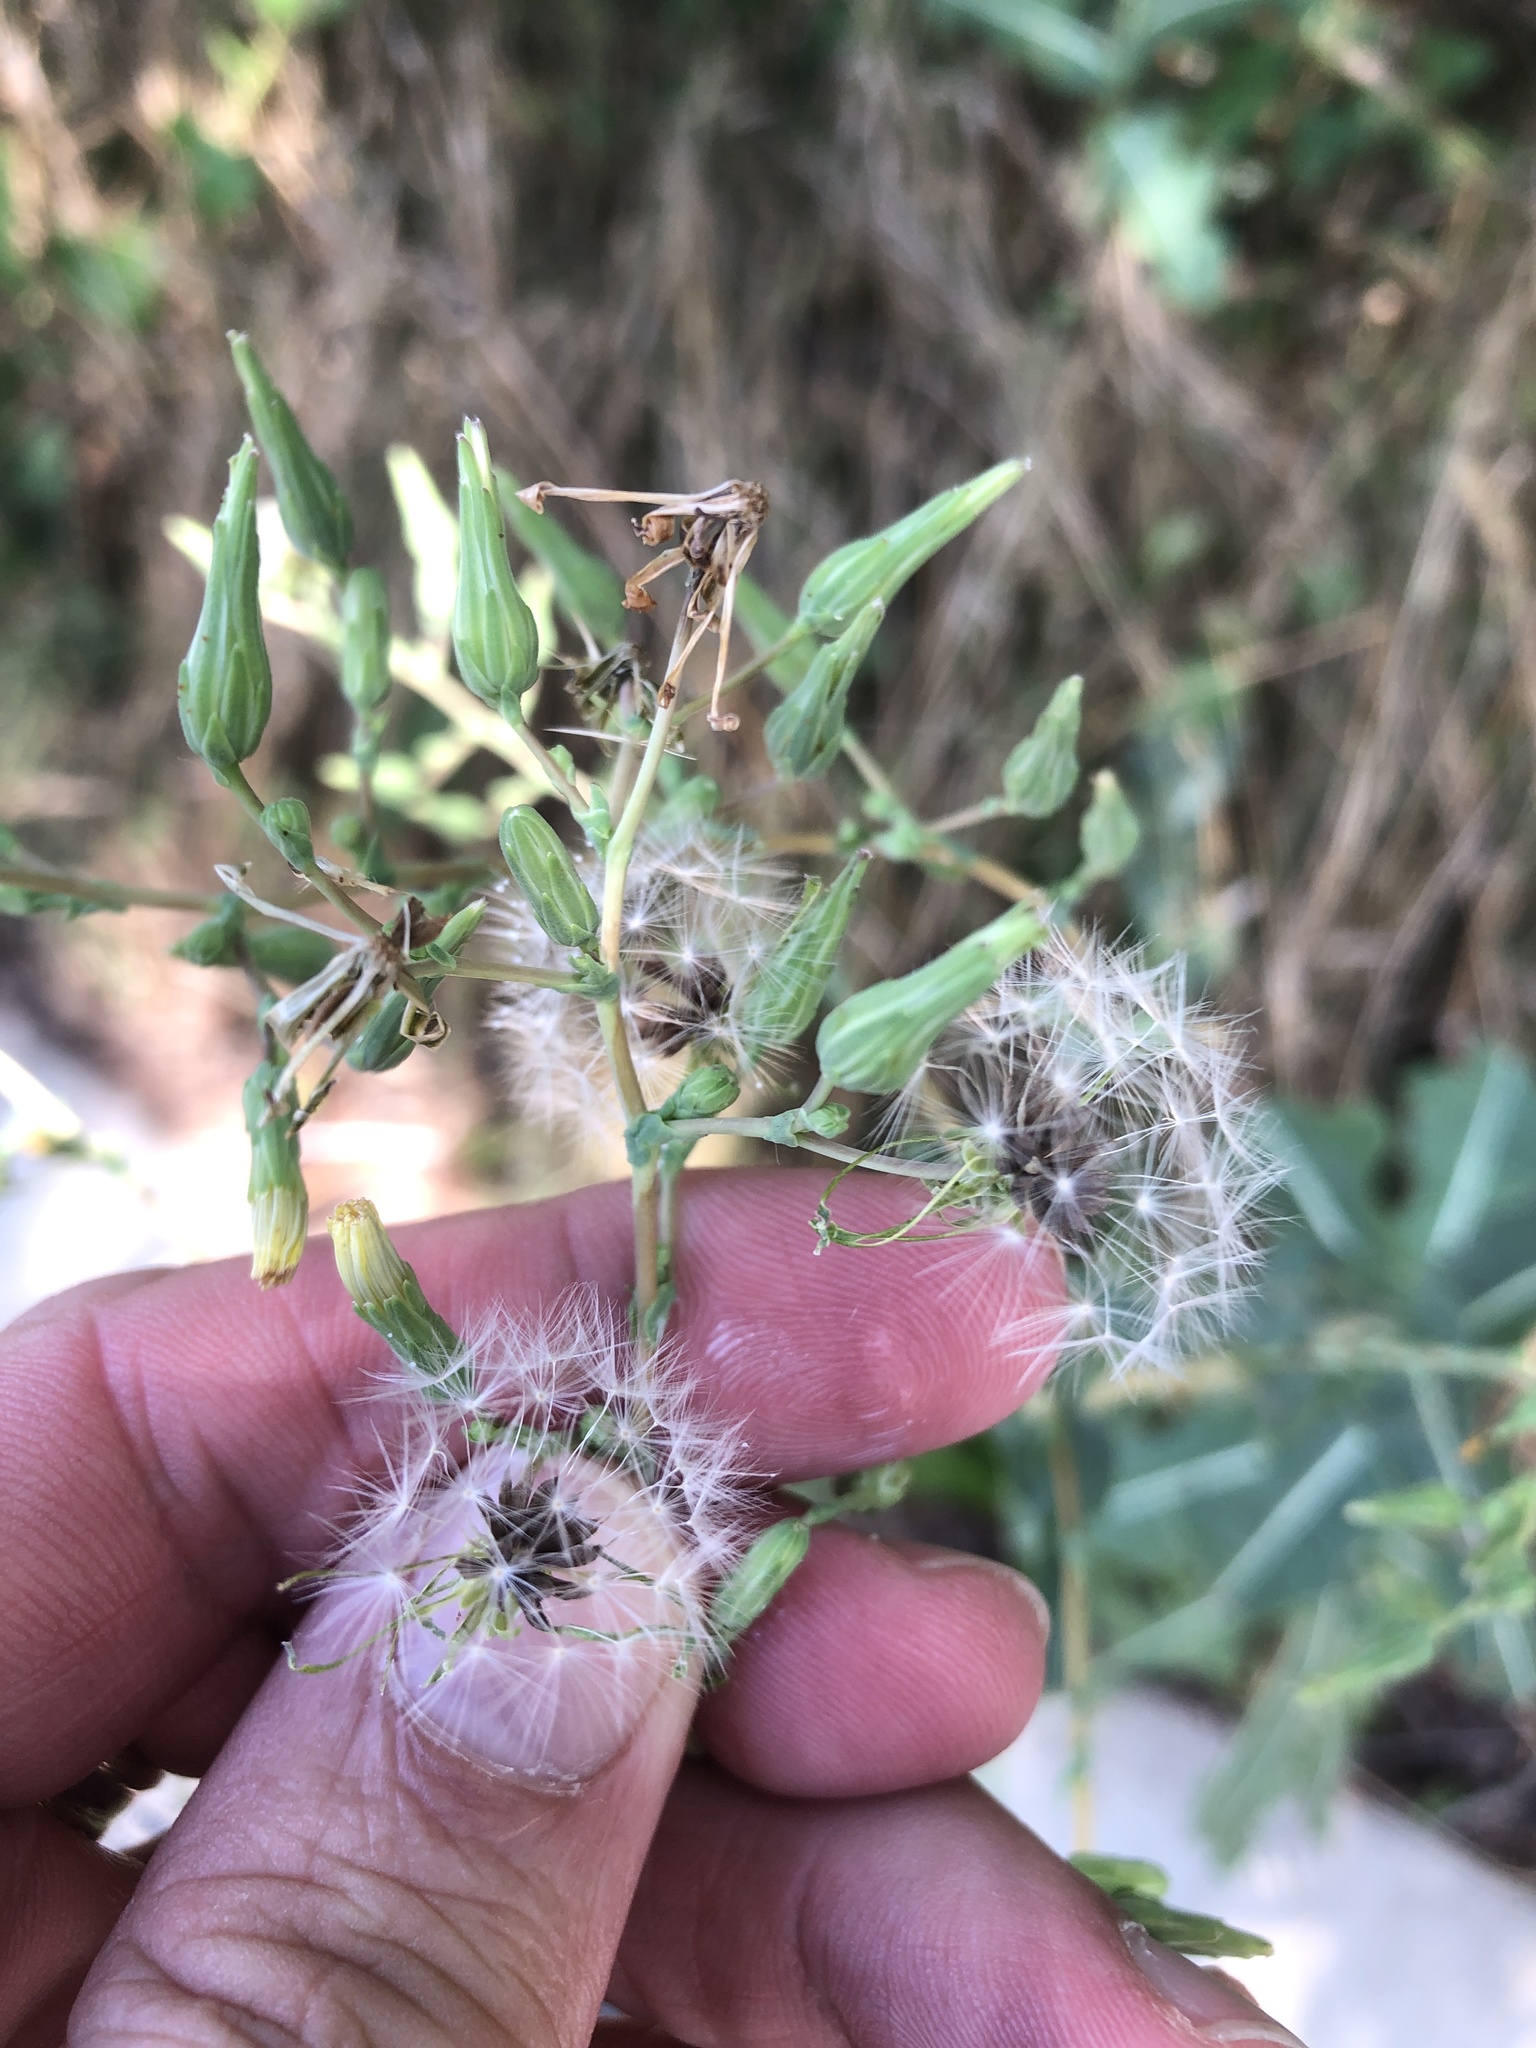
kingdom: Plantae
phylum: Tracheophyta
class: Magnoliopsida
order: Asterales
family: Asteraceae
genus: Lactuca
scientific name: Lactuca serriola
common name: Prickly lettuce
